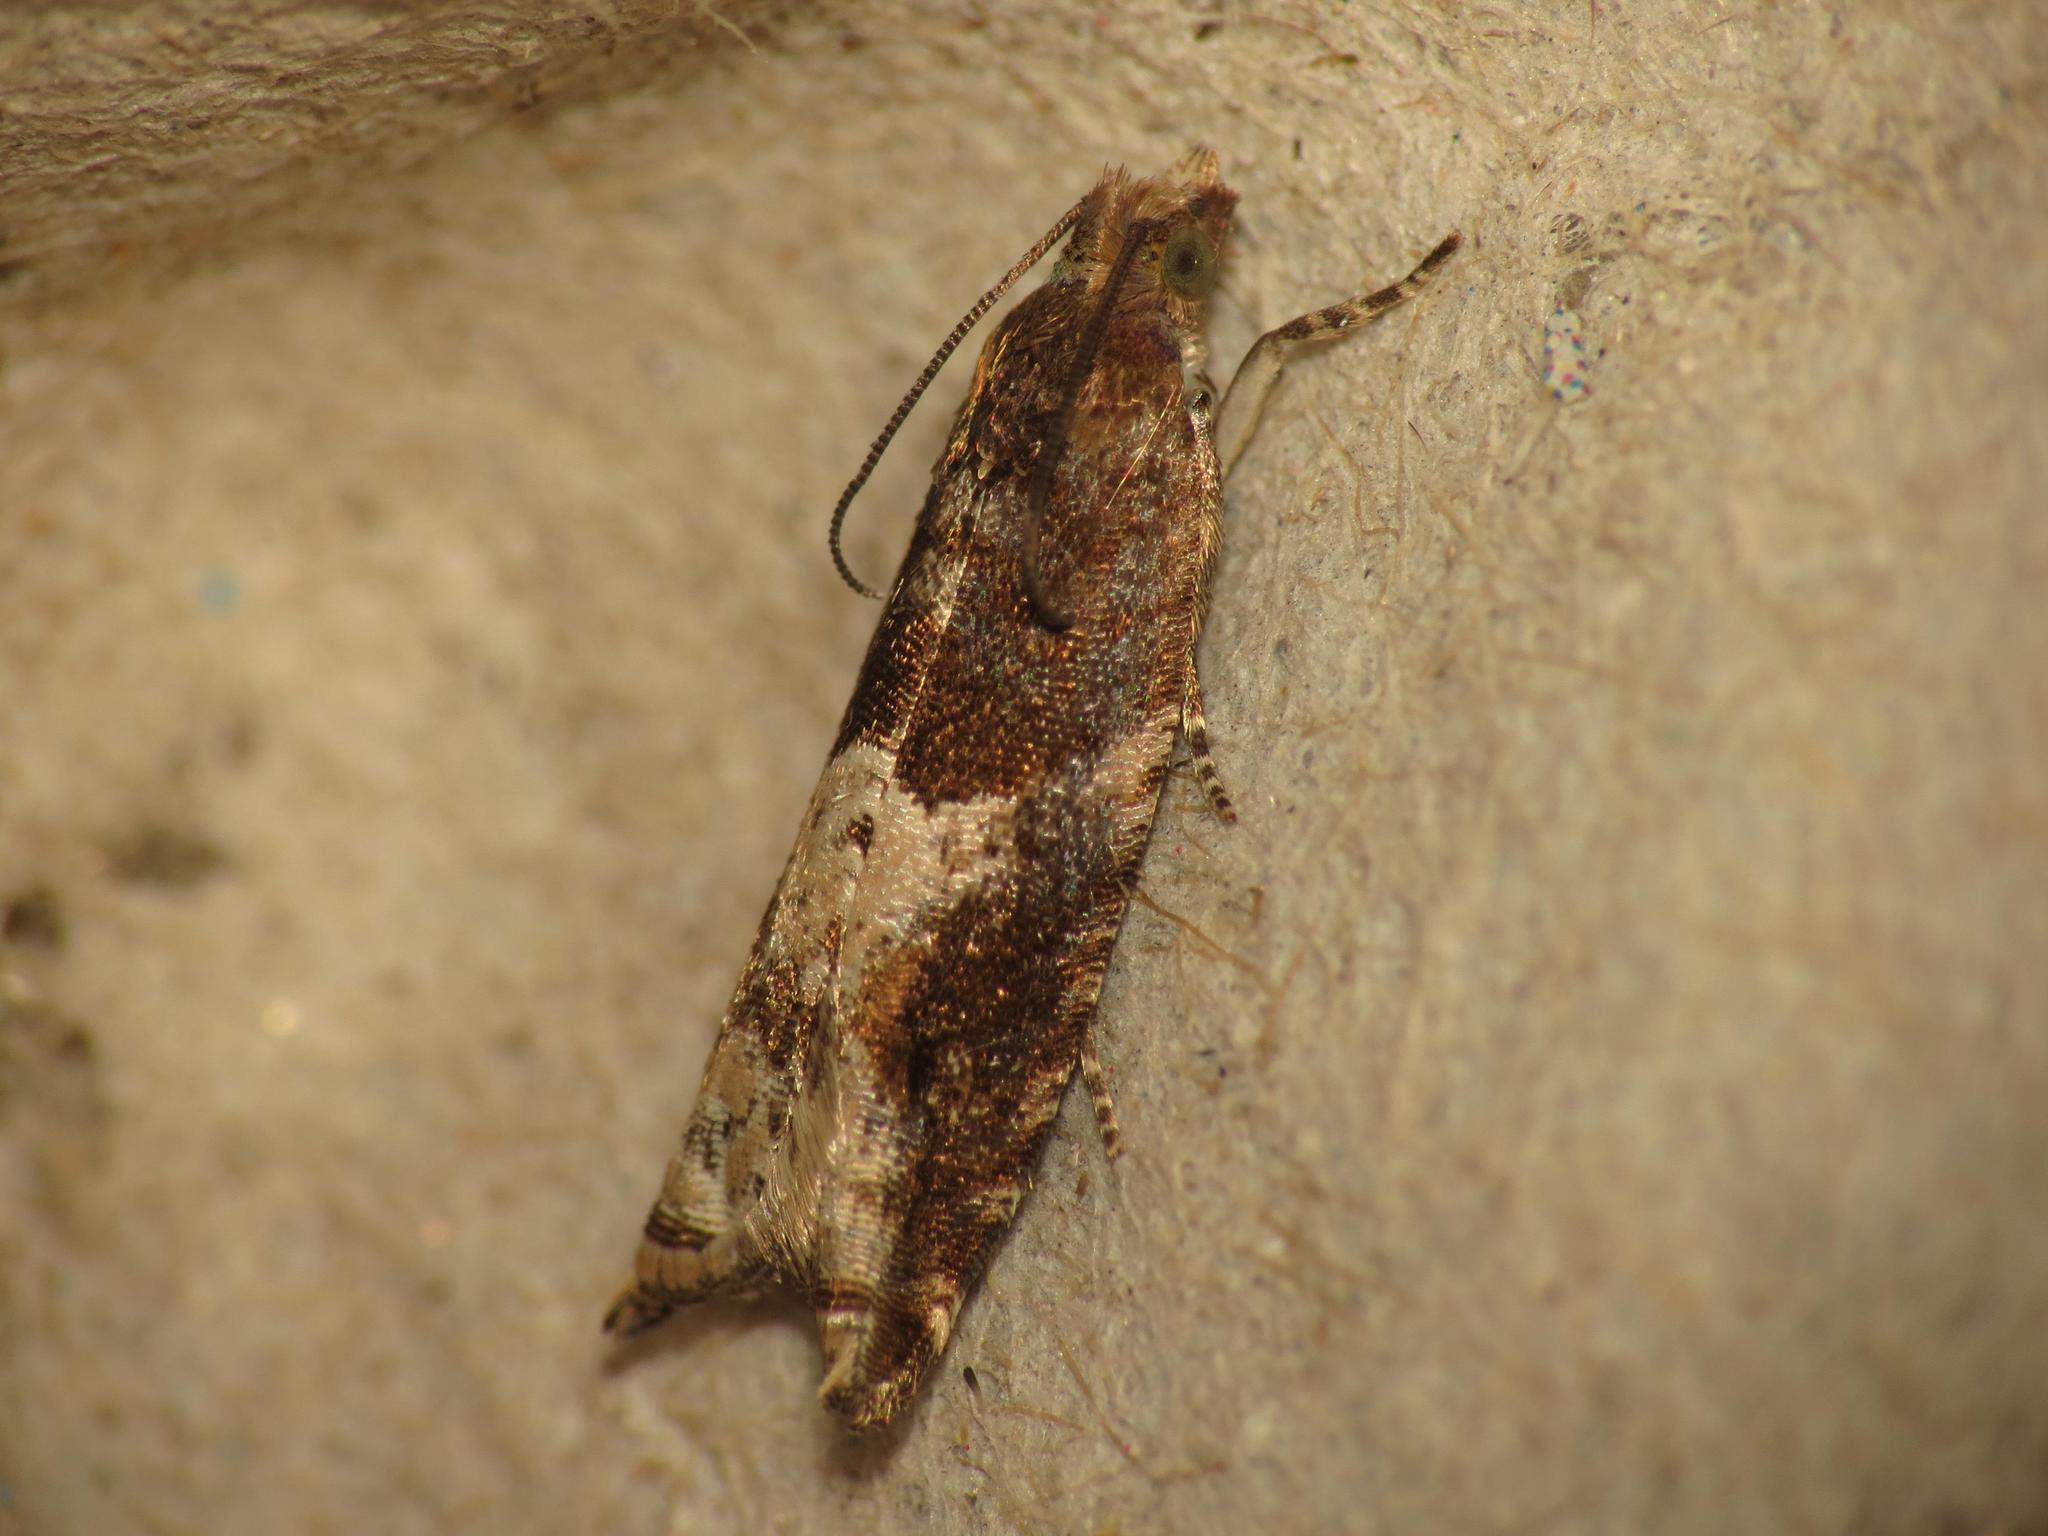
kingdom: Animalia
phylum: Arthropoda
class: Insecta
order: Lepidoptera
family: Tortricidae
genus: Rhopobota
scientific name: Rhopobota naevana
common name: Blackheaded fireworm, holly tortrix
